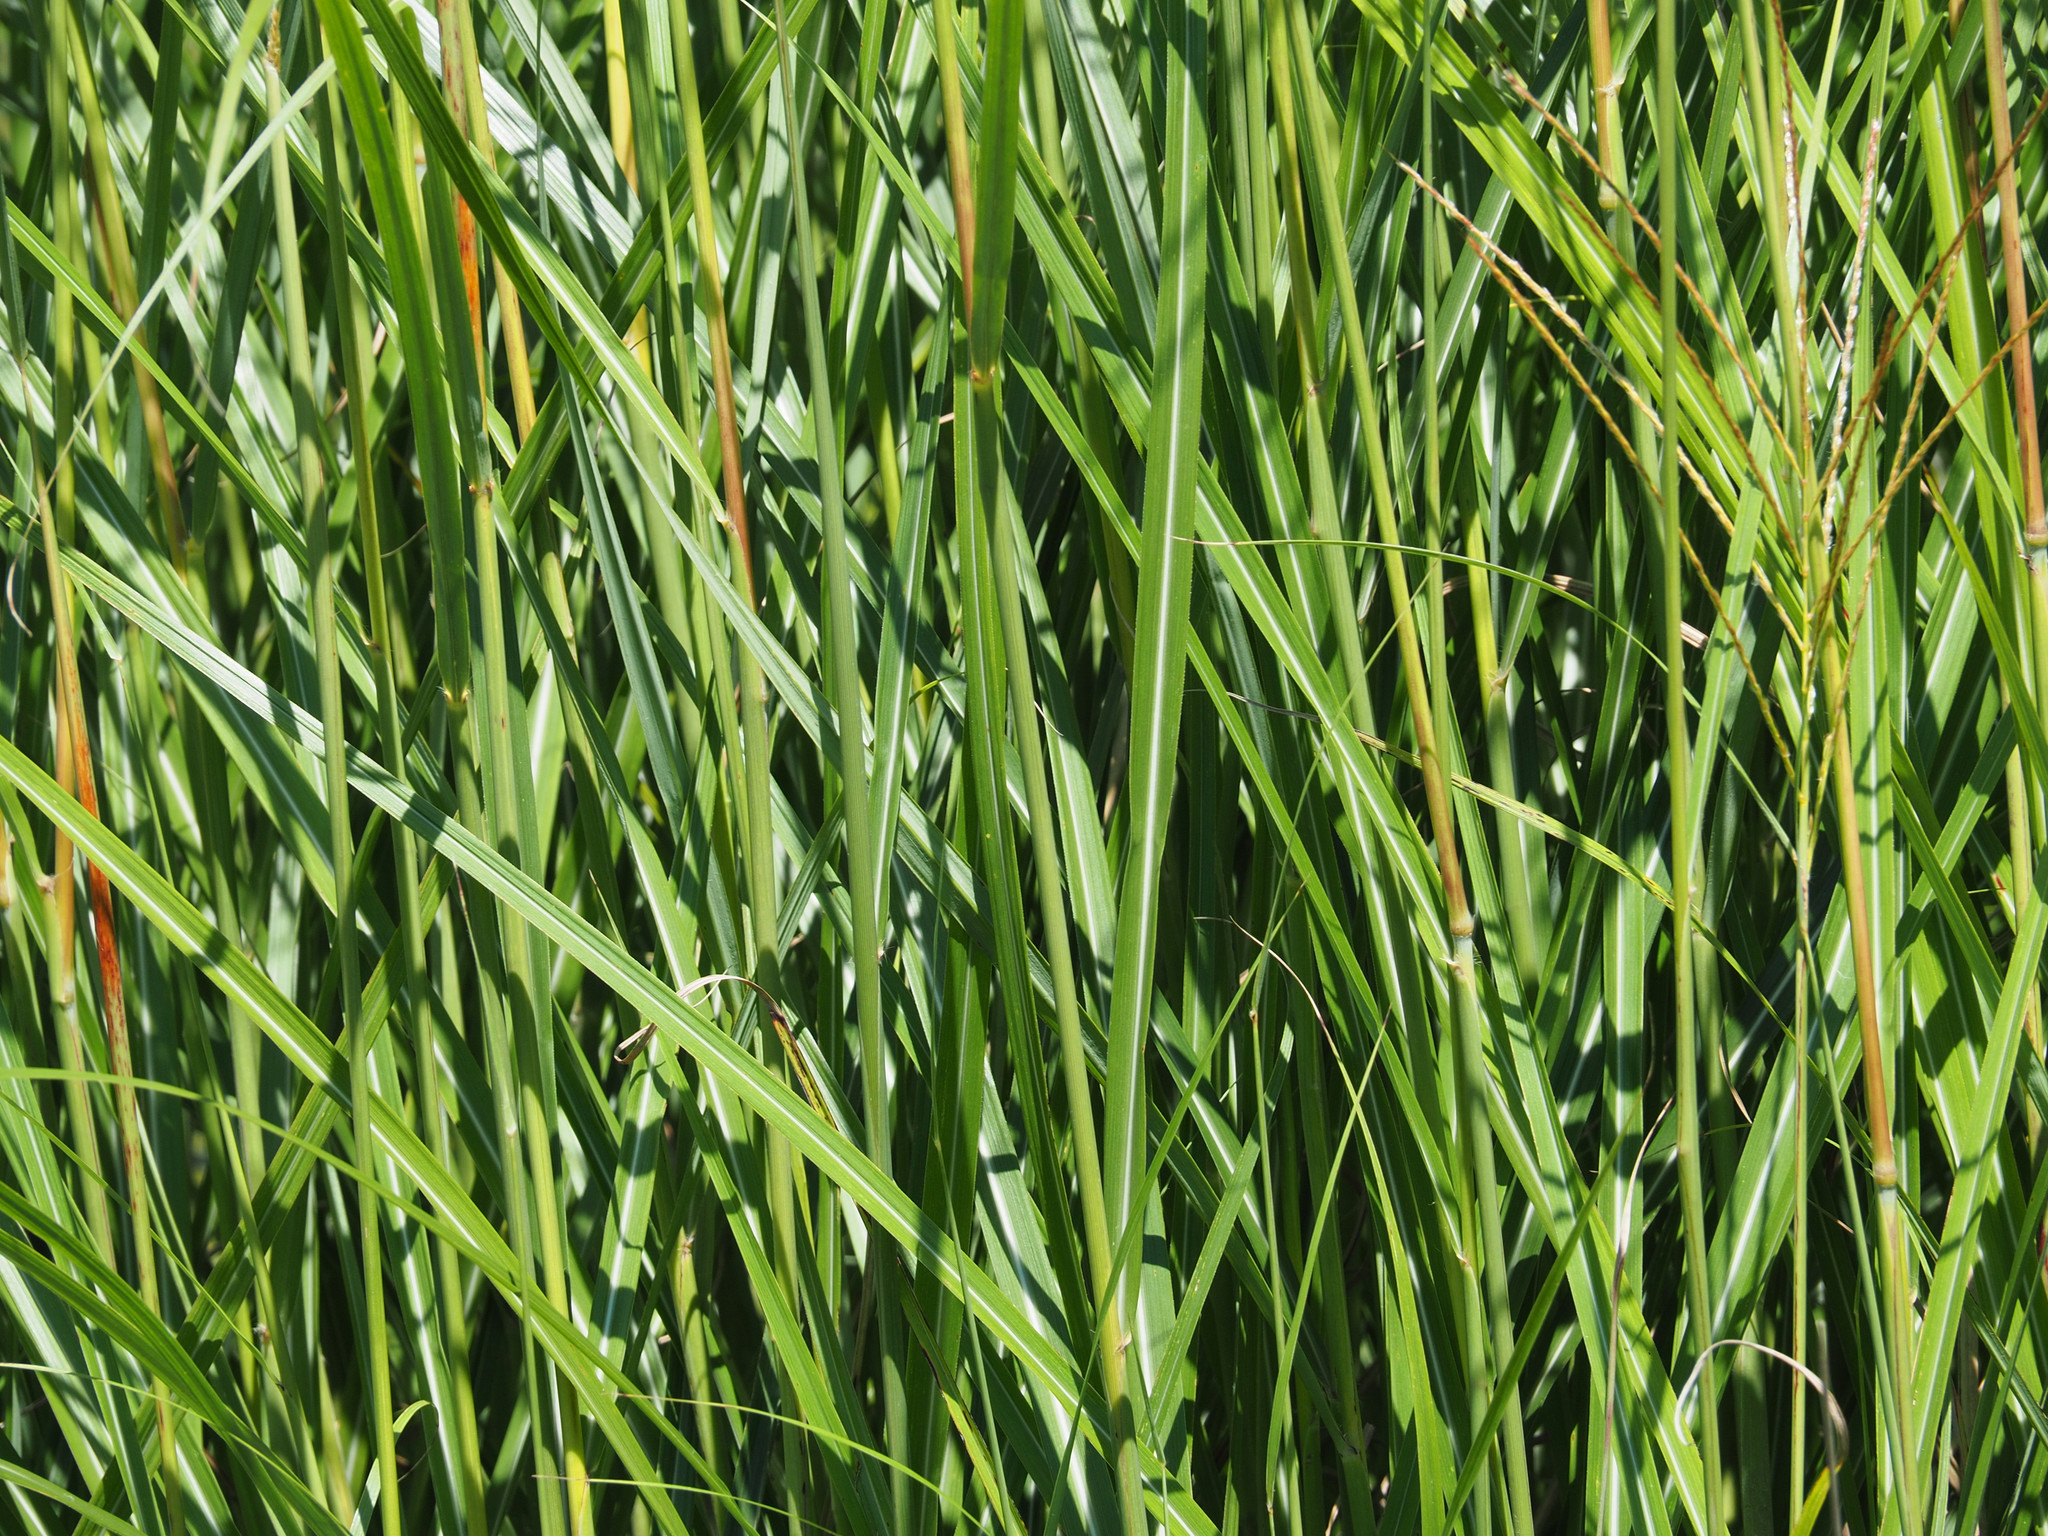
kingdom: Plantae
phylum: Tracheophyta
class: Liliopsida
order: Poales
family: Poaceae
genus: Miscanthus
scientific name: Miscanthus sinensis
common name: Chinese silvergrass
